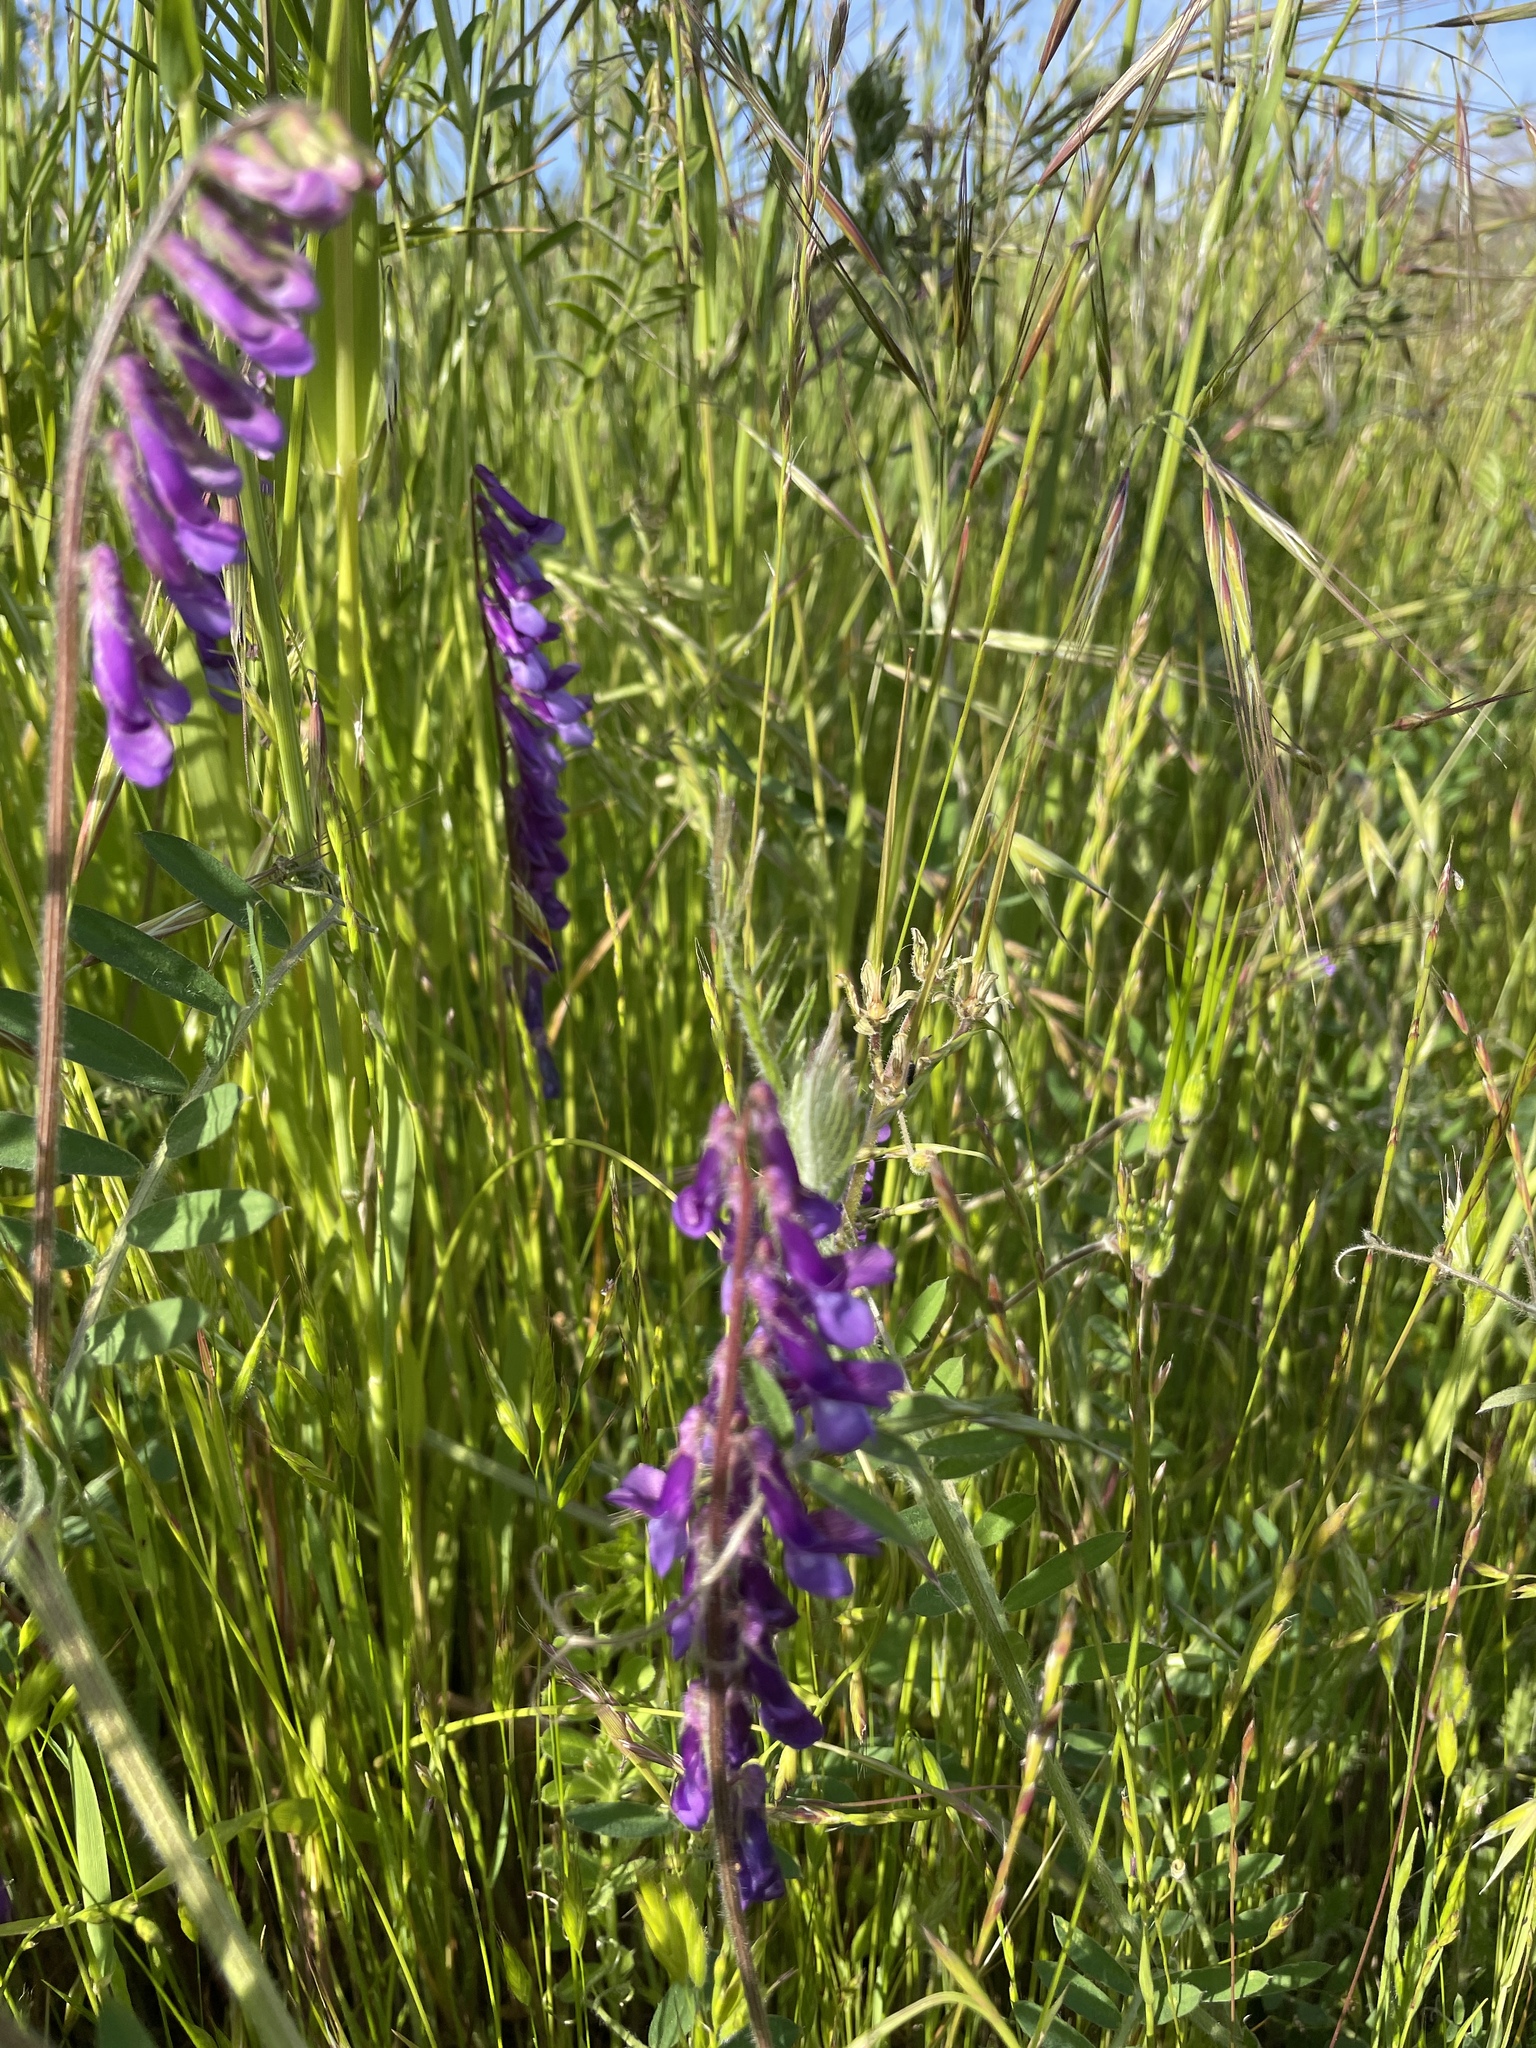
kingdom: Plantae
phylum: Tracheophyta
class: Magnoliopsida
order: Fabales
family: Fabaceae
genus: Vicia
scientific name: Vicia villosa
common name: Fodder vetch
